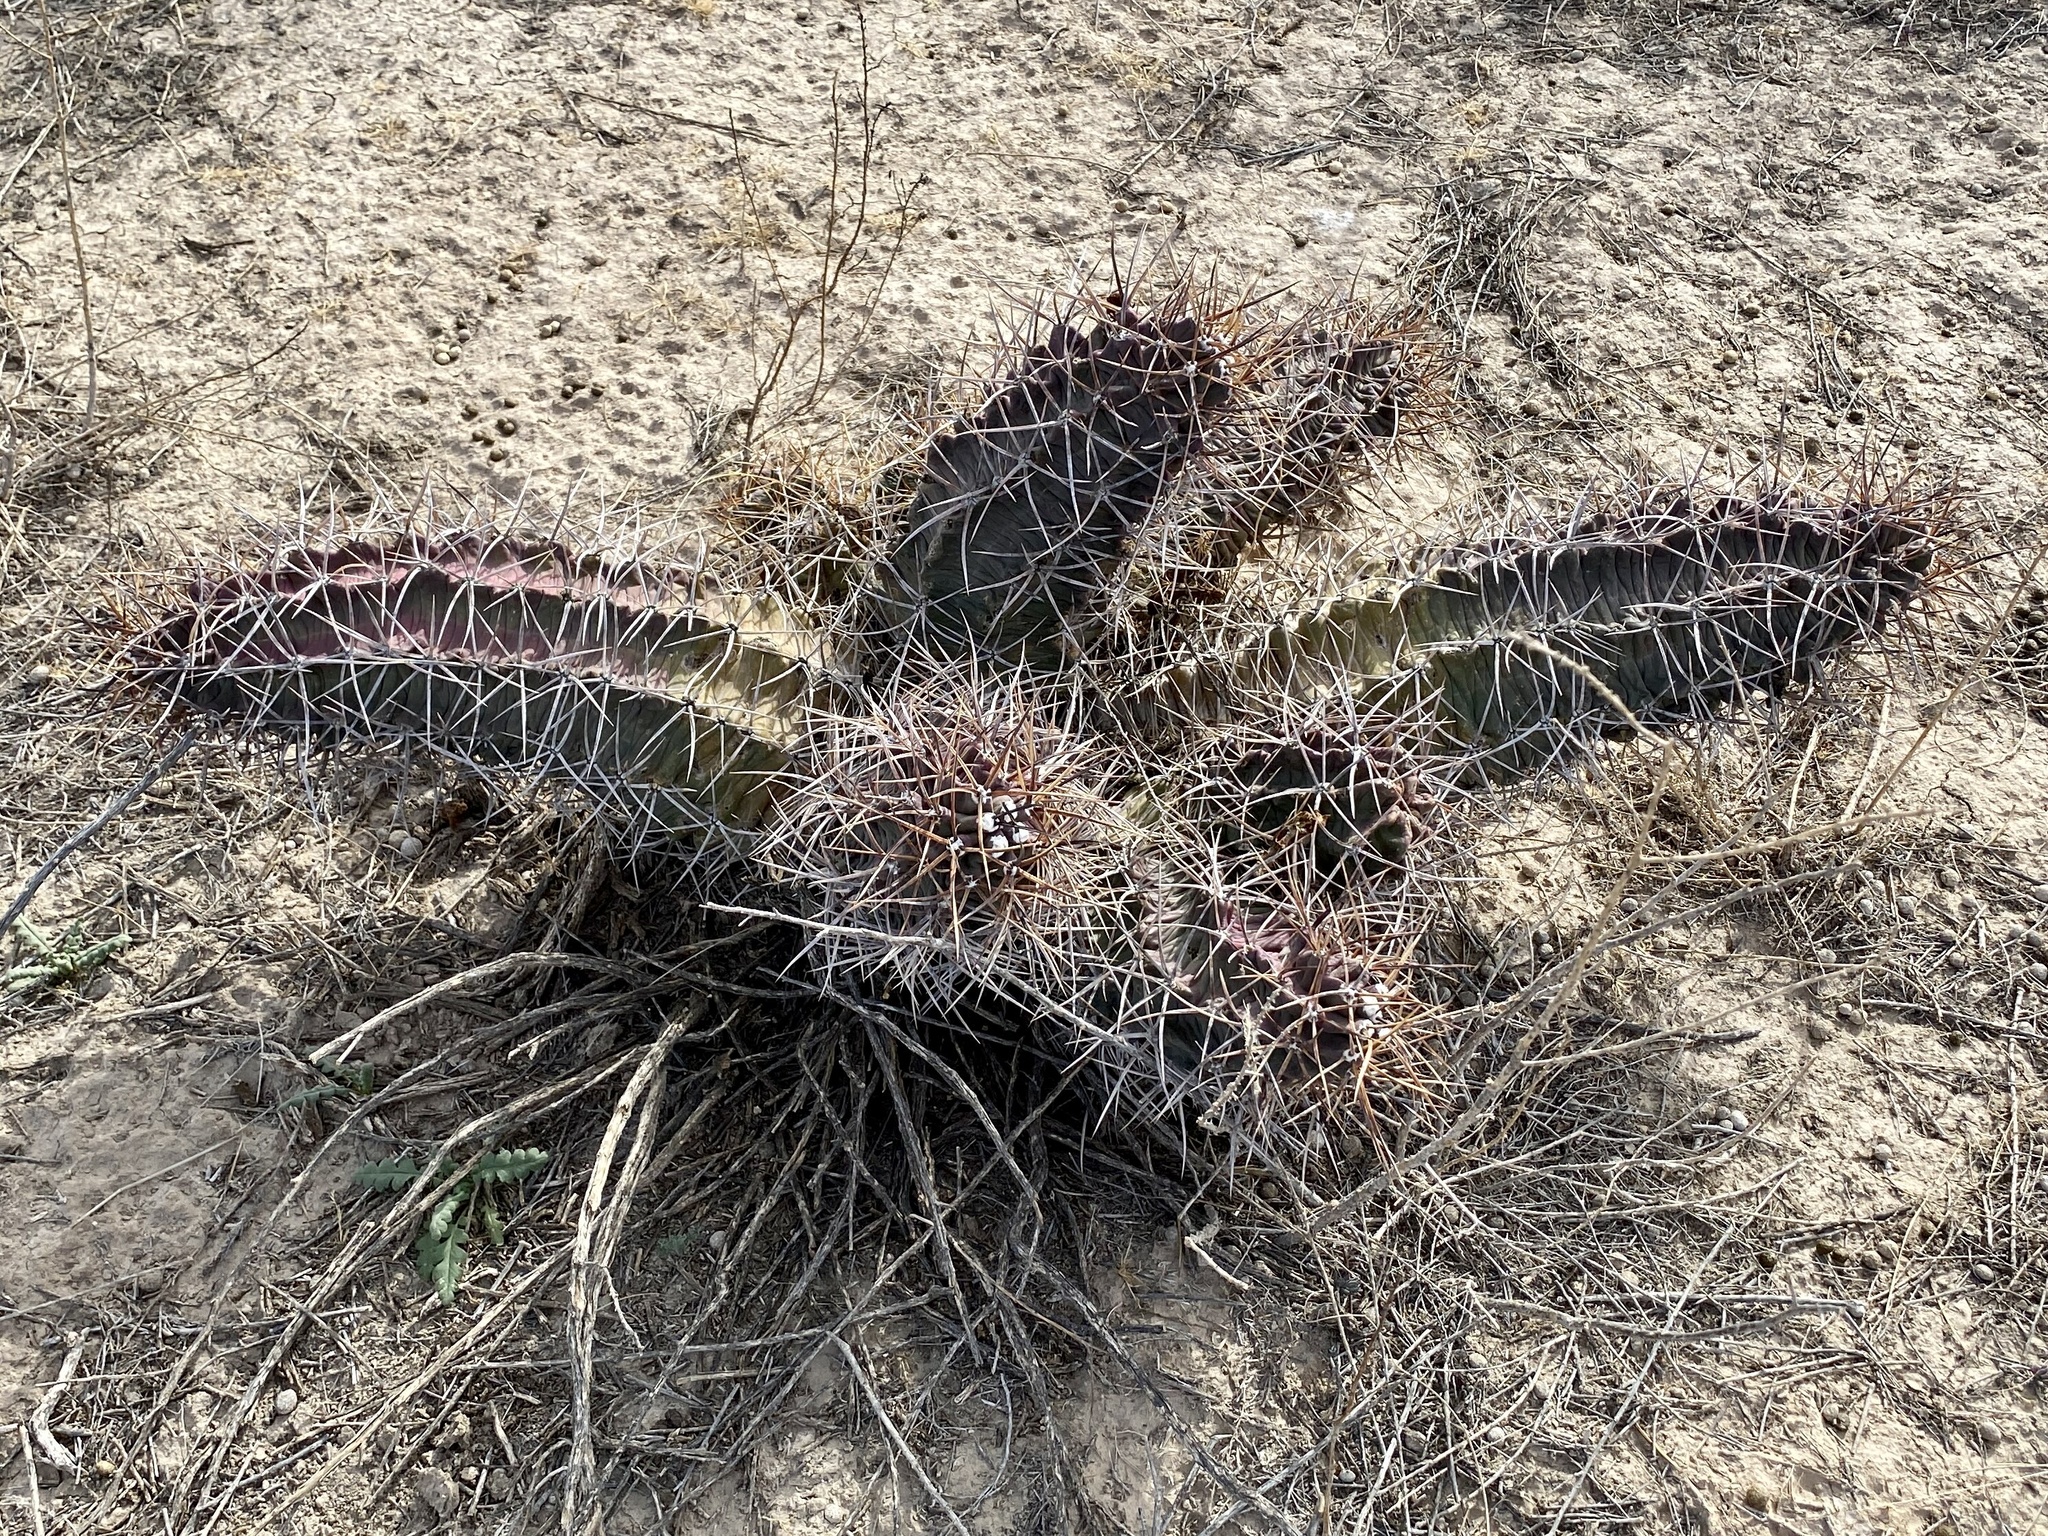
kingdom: Plantae
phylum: Tracheophyta
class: Magnoliopsida
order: Caryophyllales
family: Cactaceae
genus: Echinocereus
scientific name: Echinocereus triglochidiatus
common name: Claretcup hedgehog
